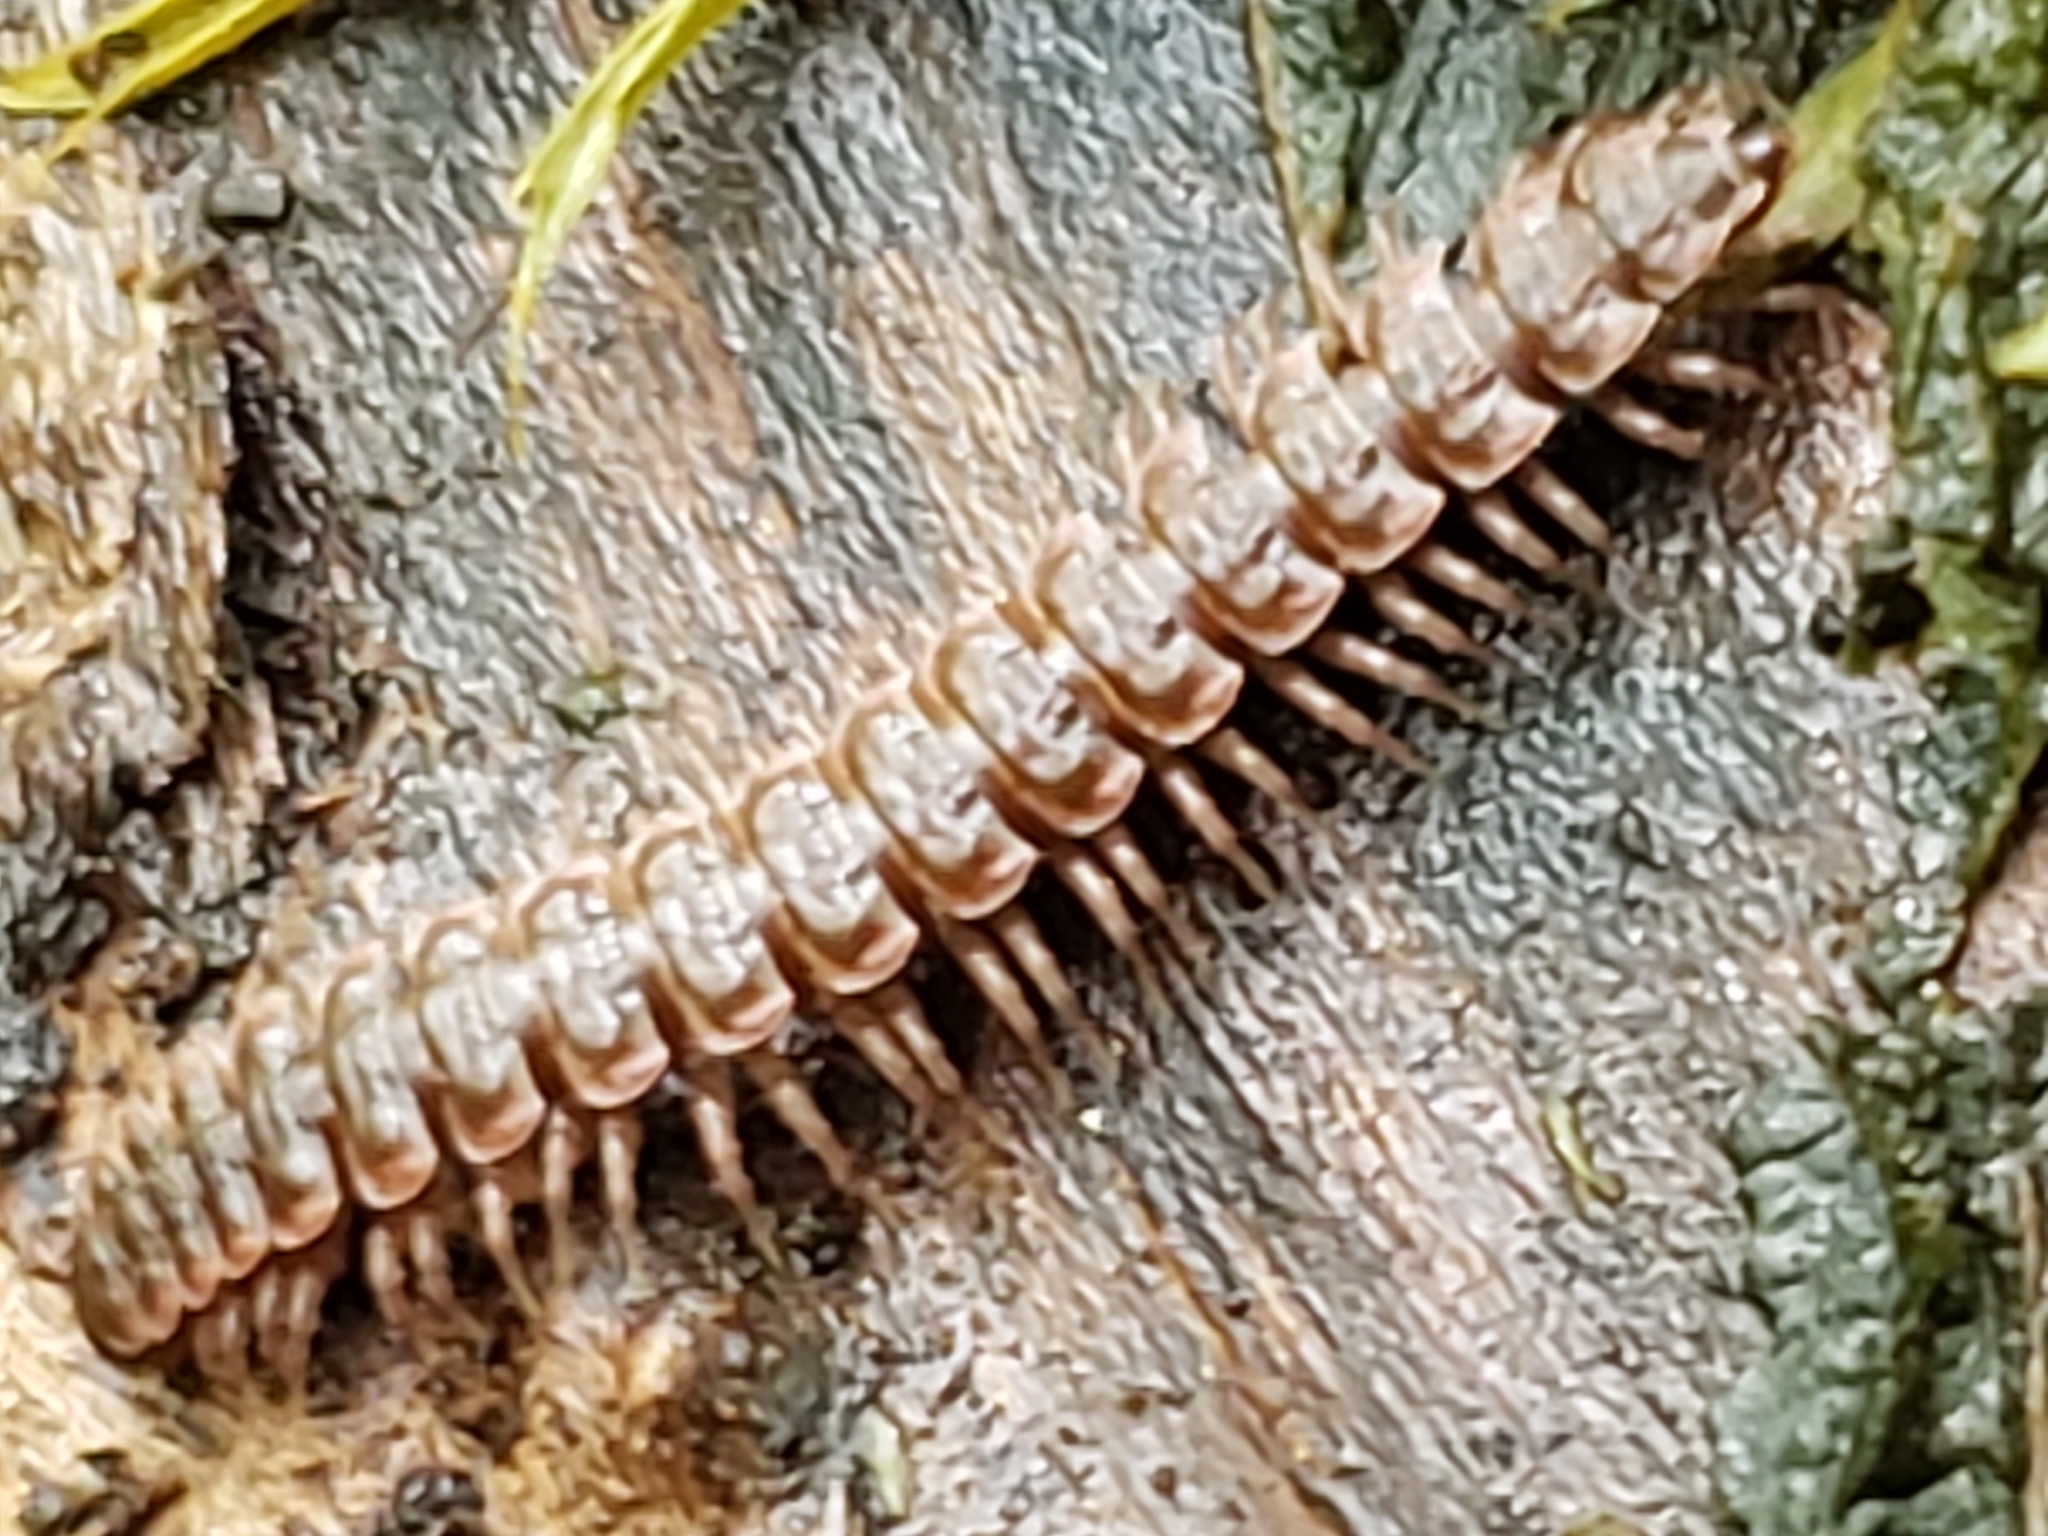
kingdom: Animalia
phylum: Arthropoda
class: Diplopoda
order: Polydesmida
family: Polydesmidae
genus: Pseudopolydesmus
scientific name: Pseudopolydesmus serratus
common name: Common pink flat-back millipede
